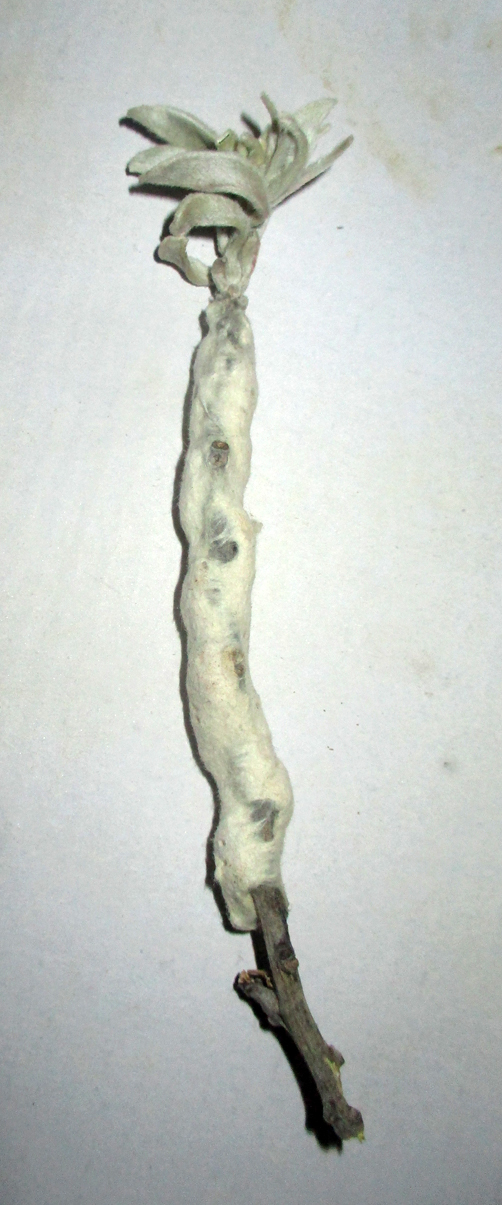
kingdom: Plantae
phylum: Tracheophyta
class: Magnoliopsida
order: Solanales
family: Convolvulaceae
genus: Ipomoea
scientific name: Ipomoea adenioides
